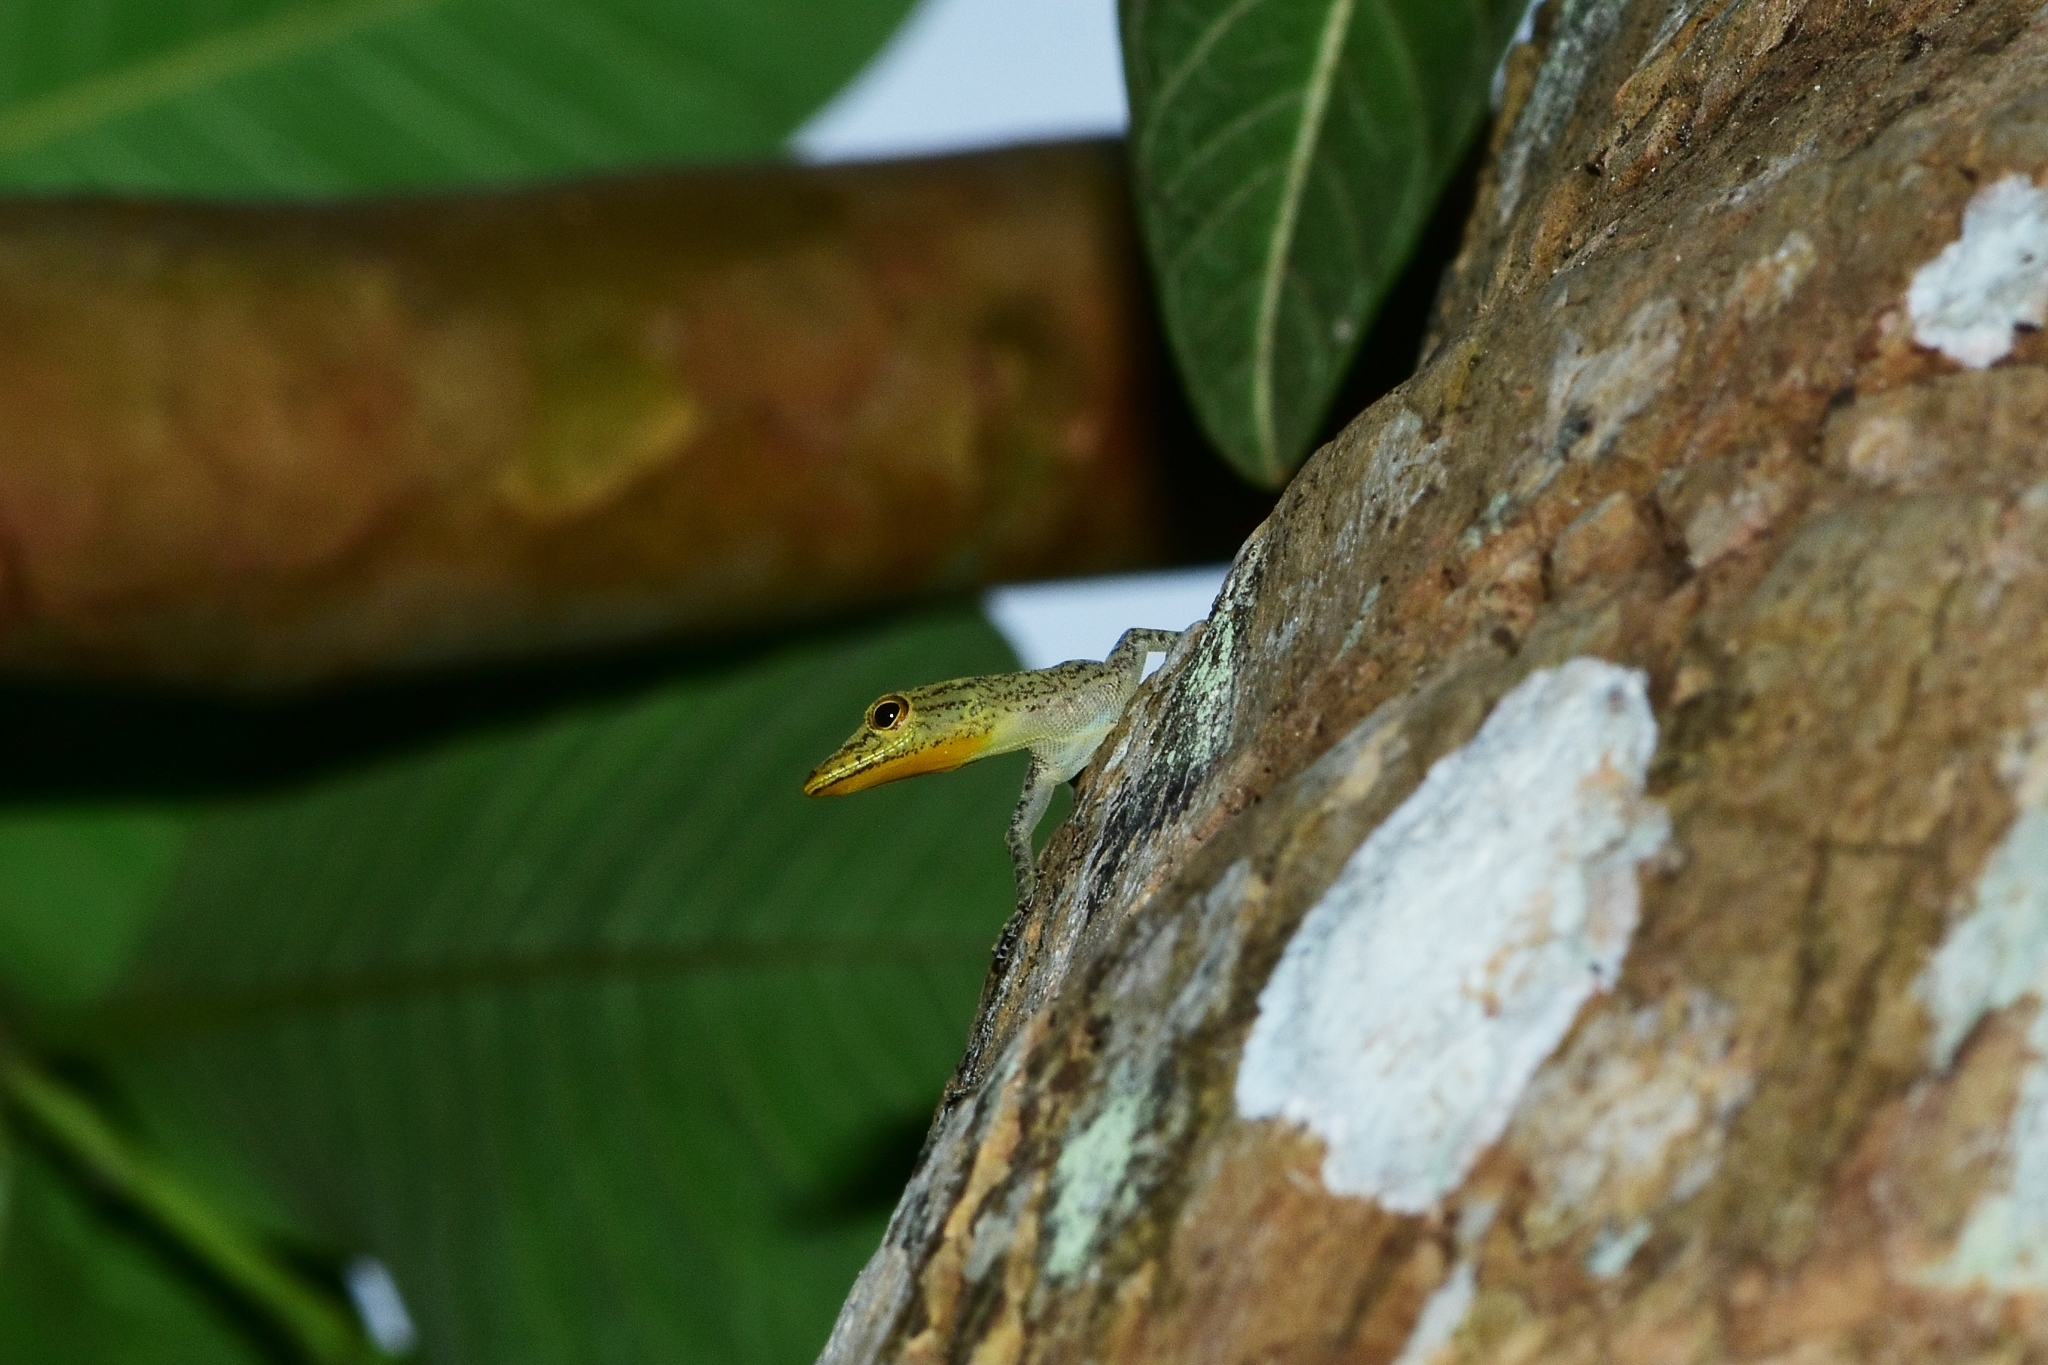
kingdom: Animalia
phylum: Chordata
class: Squamata
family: Gekkonidae
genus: Cnemaspis
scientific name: Cnemaspis littoralis
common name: Coastal day gecko
